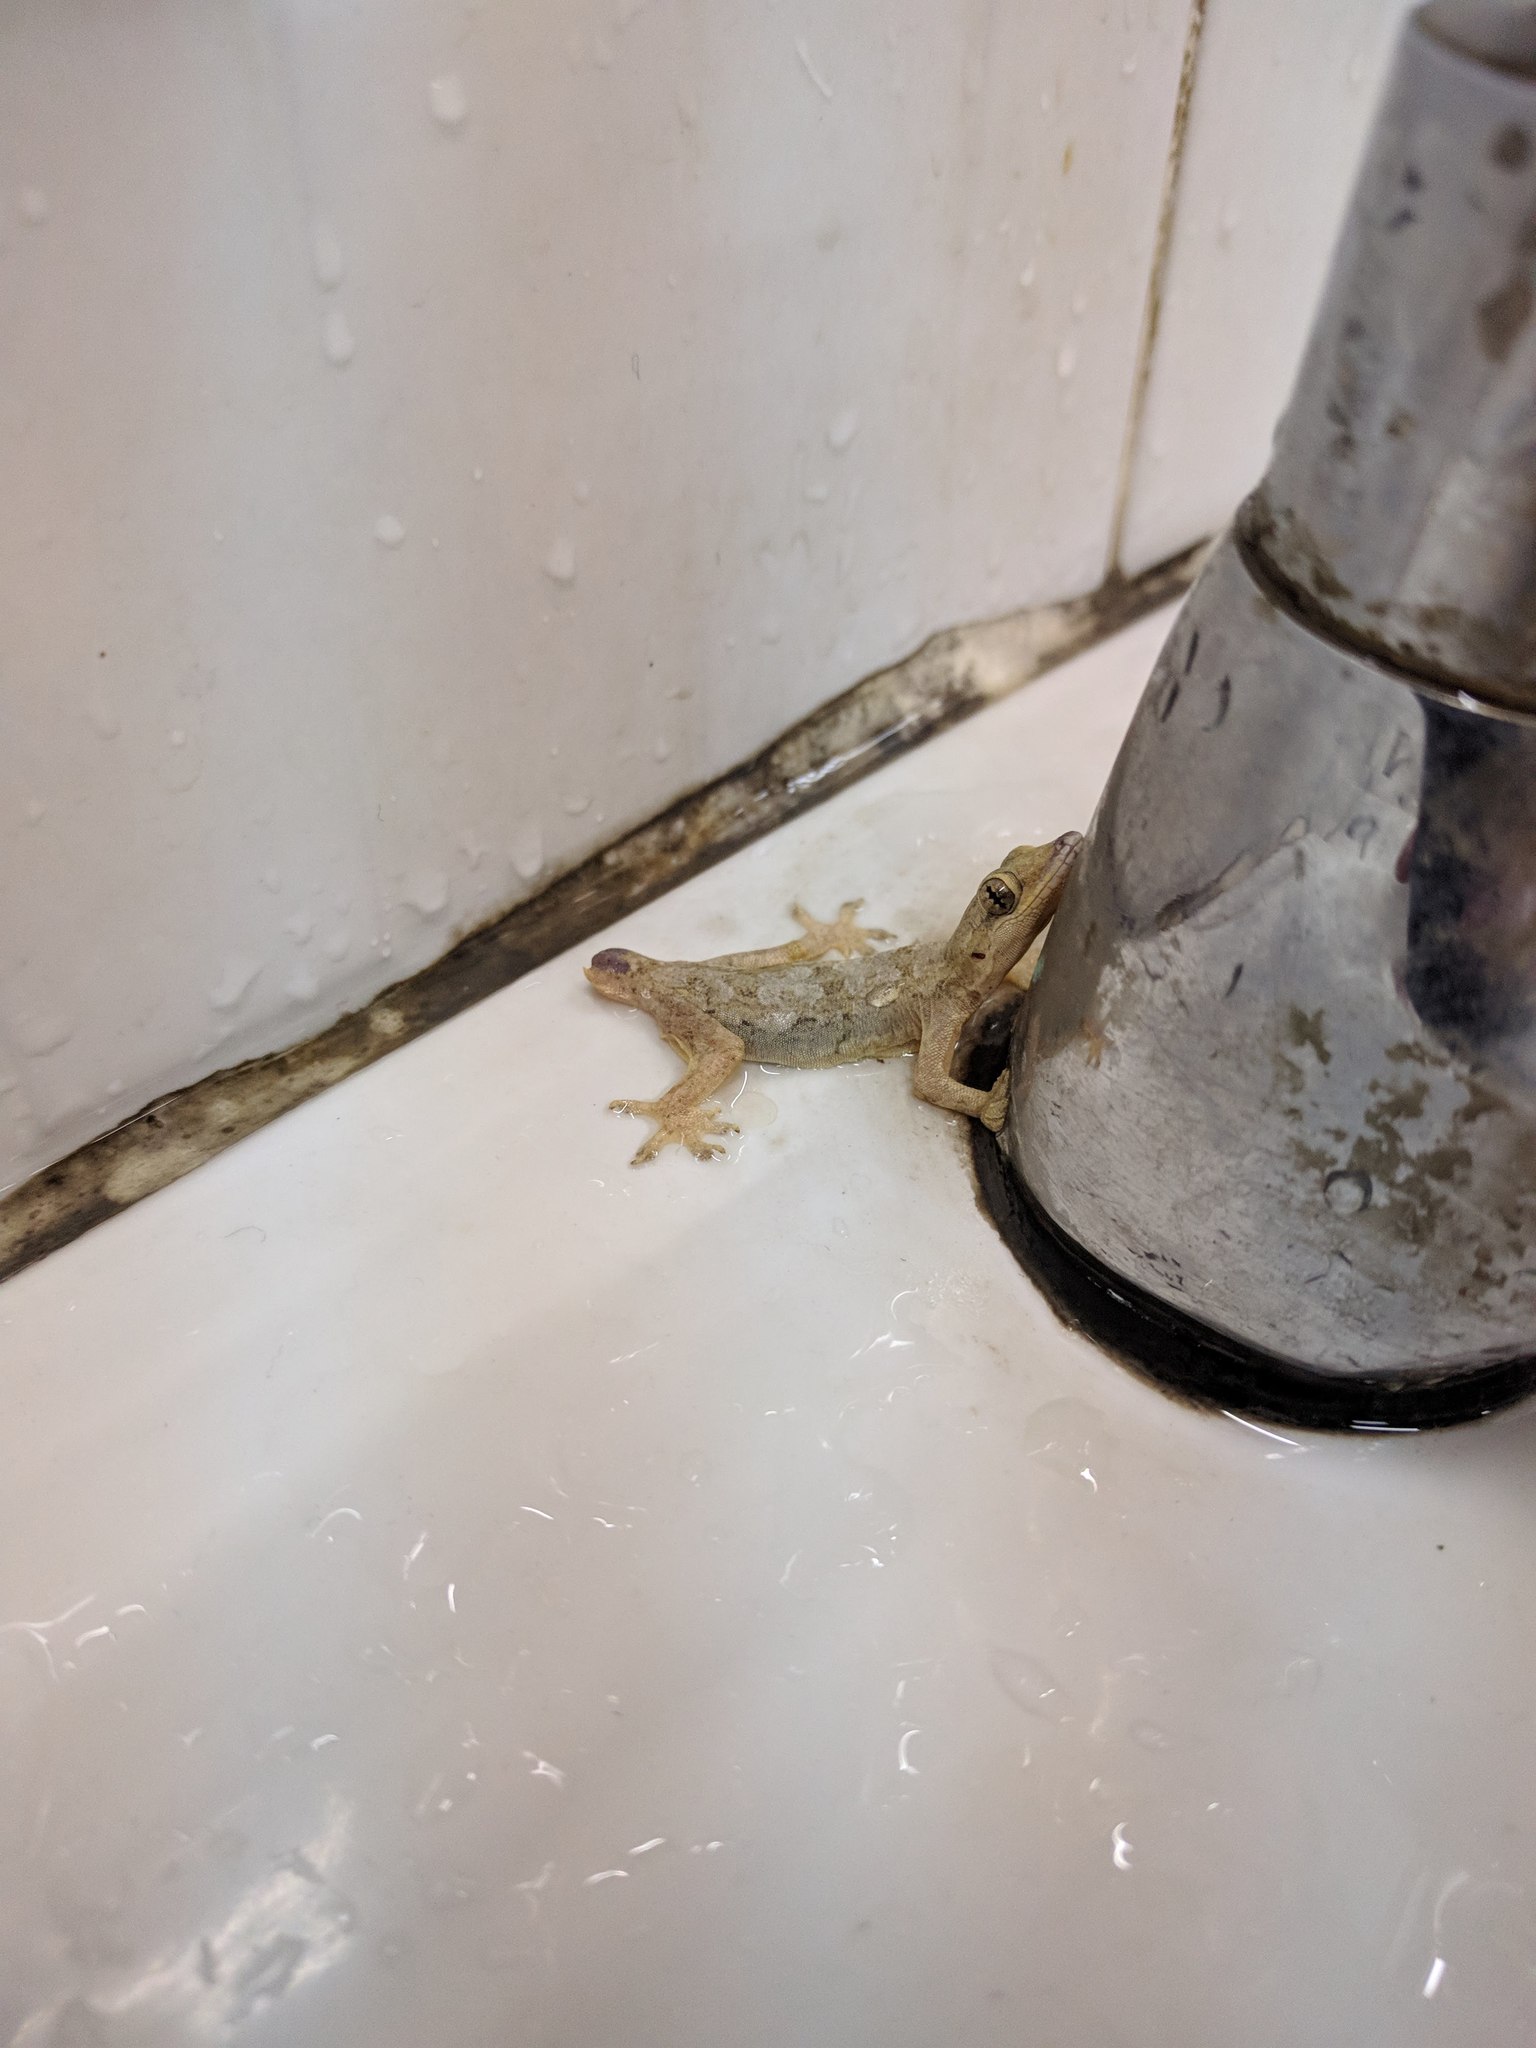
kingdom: Animalia
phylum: Chordata
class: Squamata
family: Gekkonidae
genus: Hemidactylus
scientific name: Hemidactylus platyurus
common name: Flat-tailed house gecko
